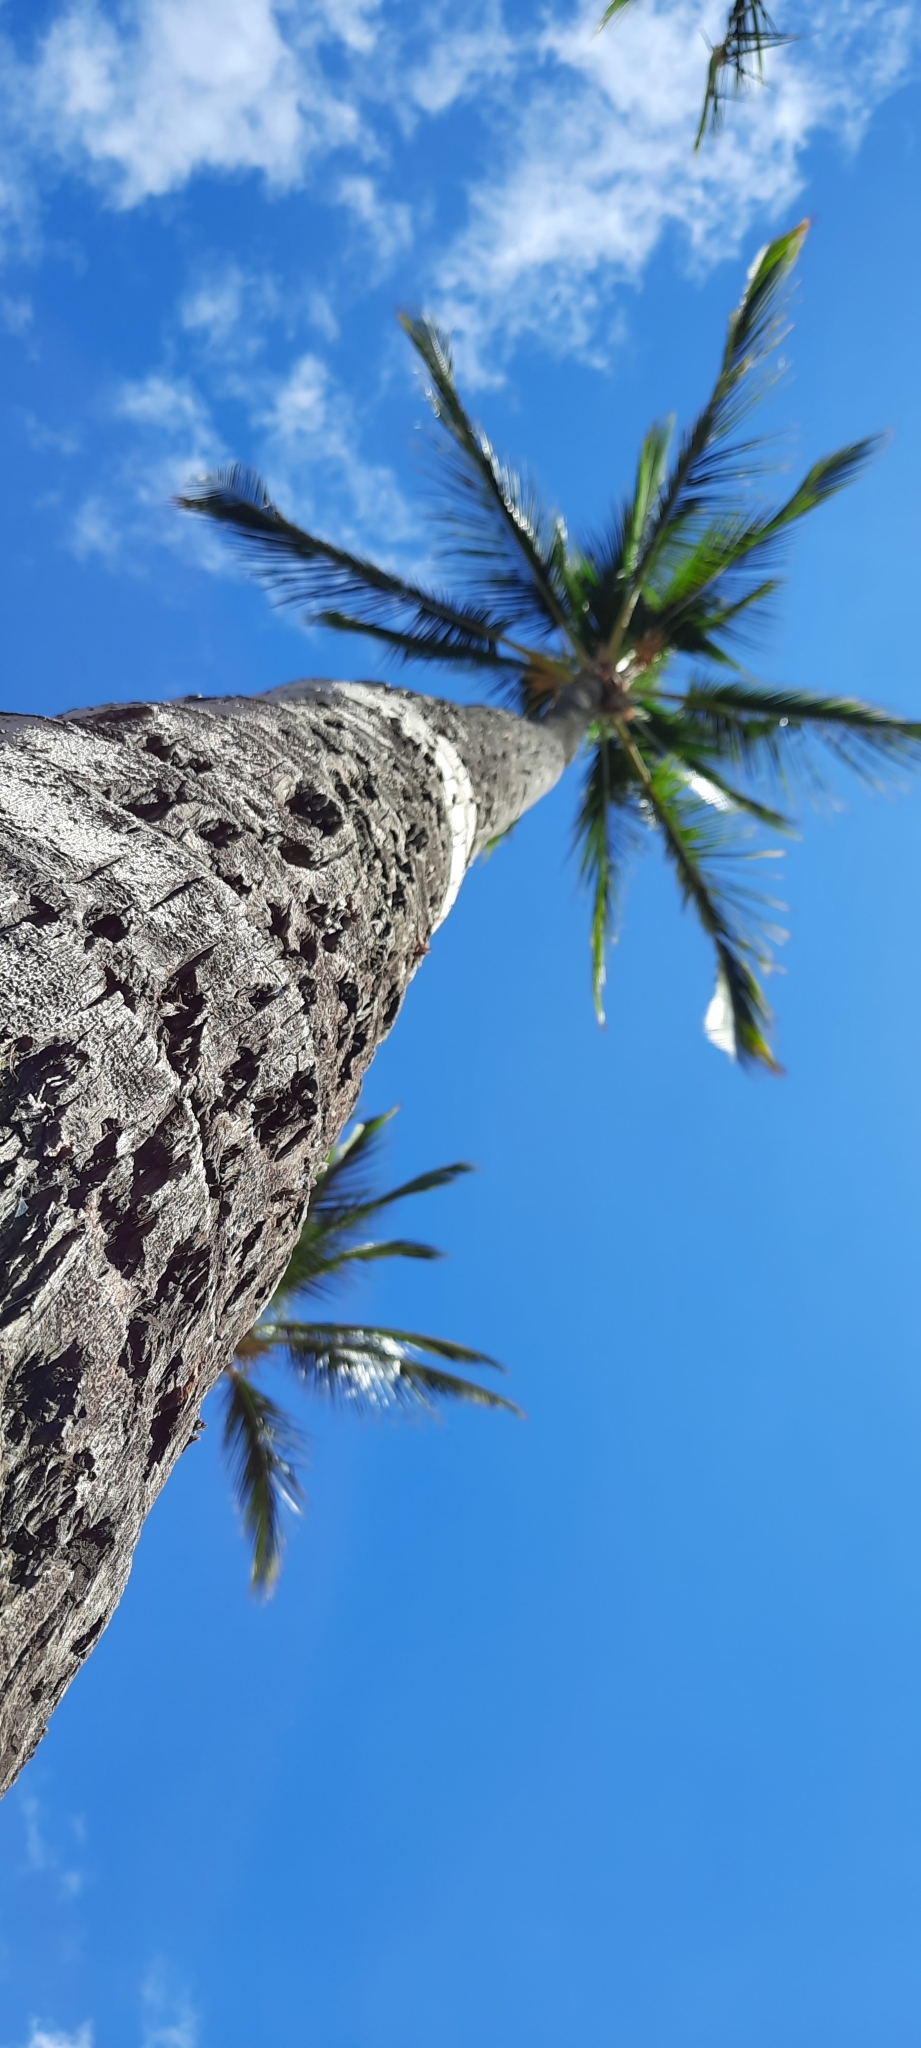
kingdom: Plantae
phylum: Tracheophyta
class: Liliopsida
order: Arecales
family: Arecaceae
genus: Cocos
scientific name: Cocos nucifera
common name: Coconut palm
